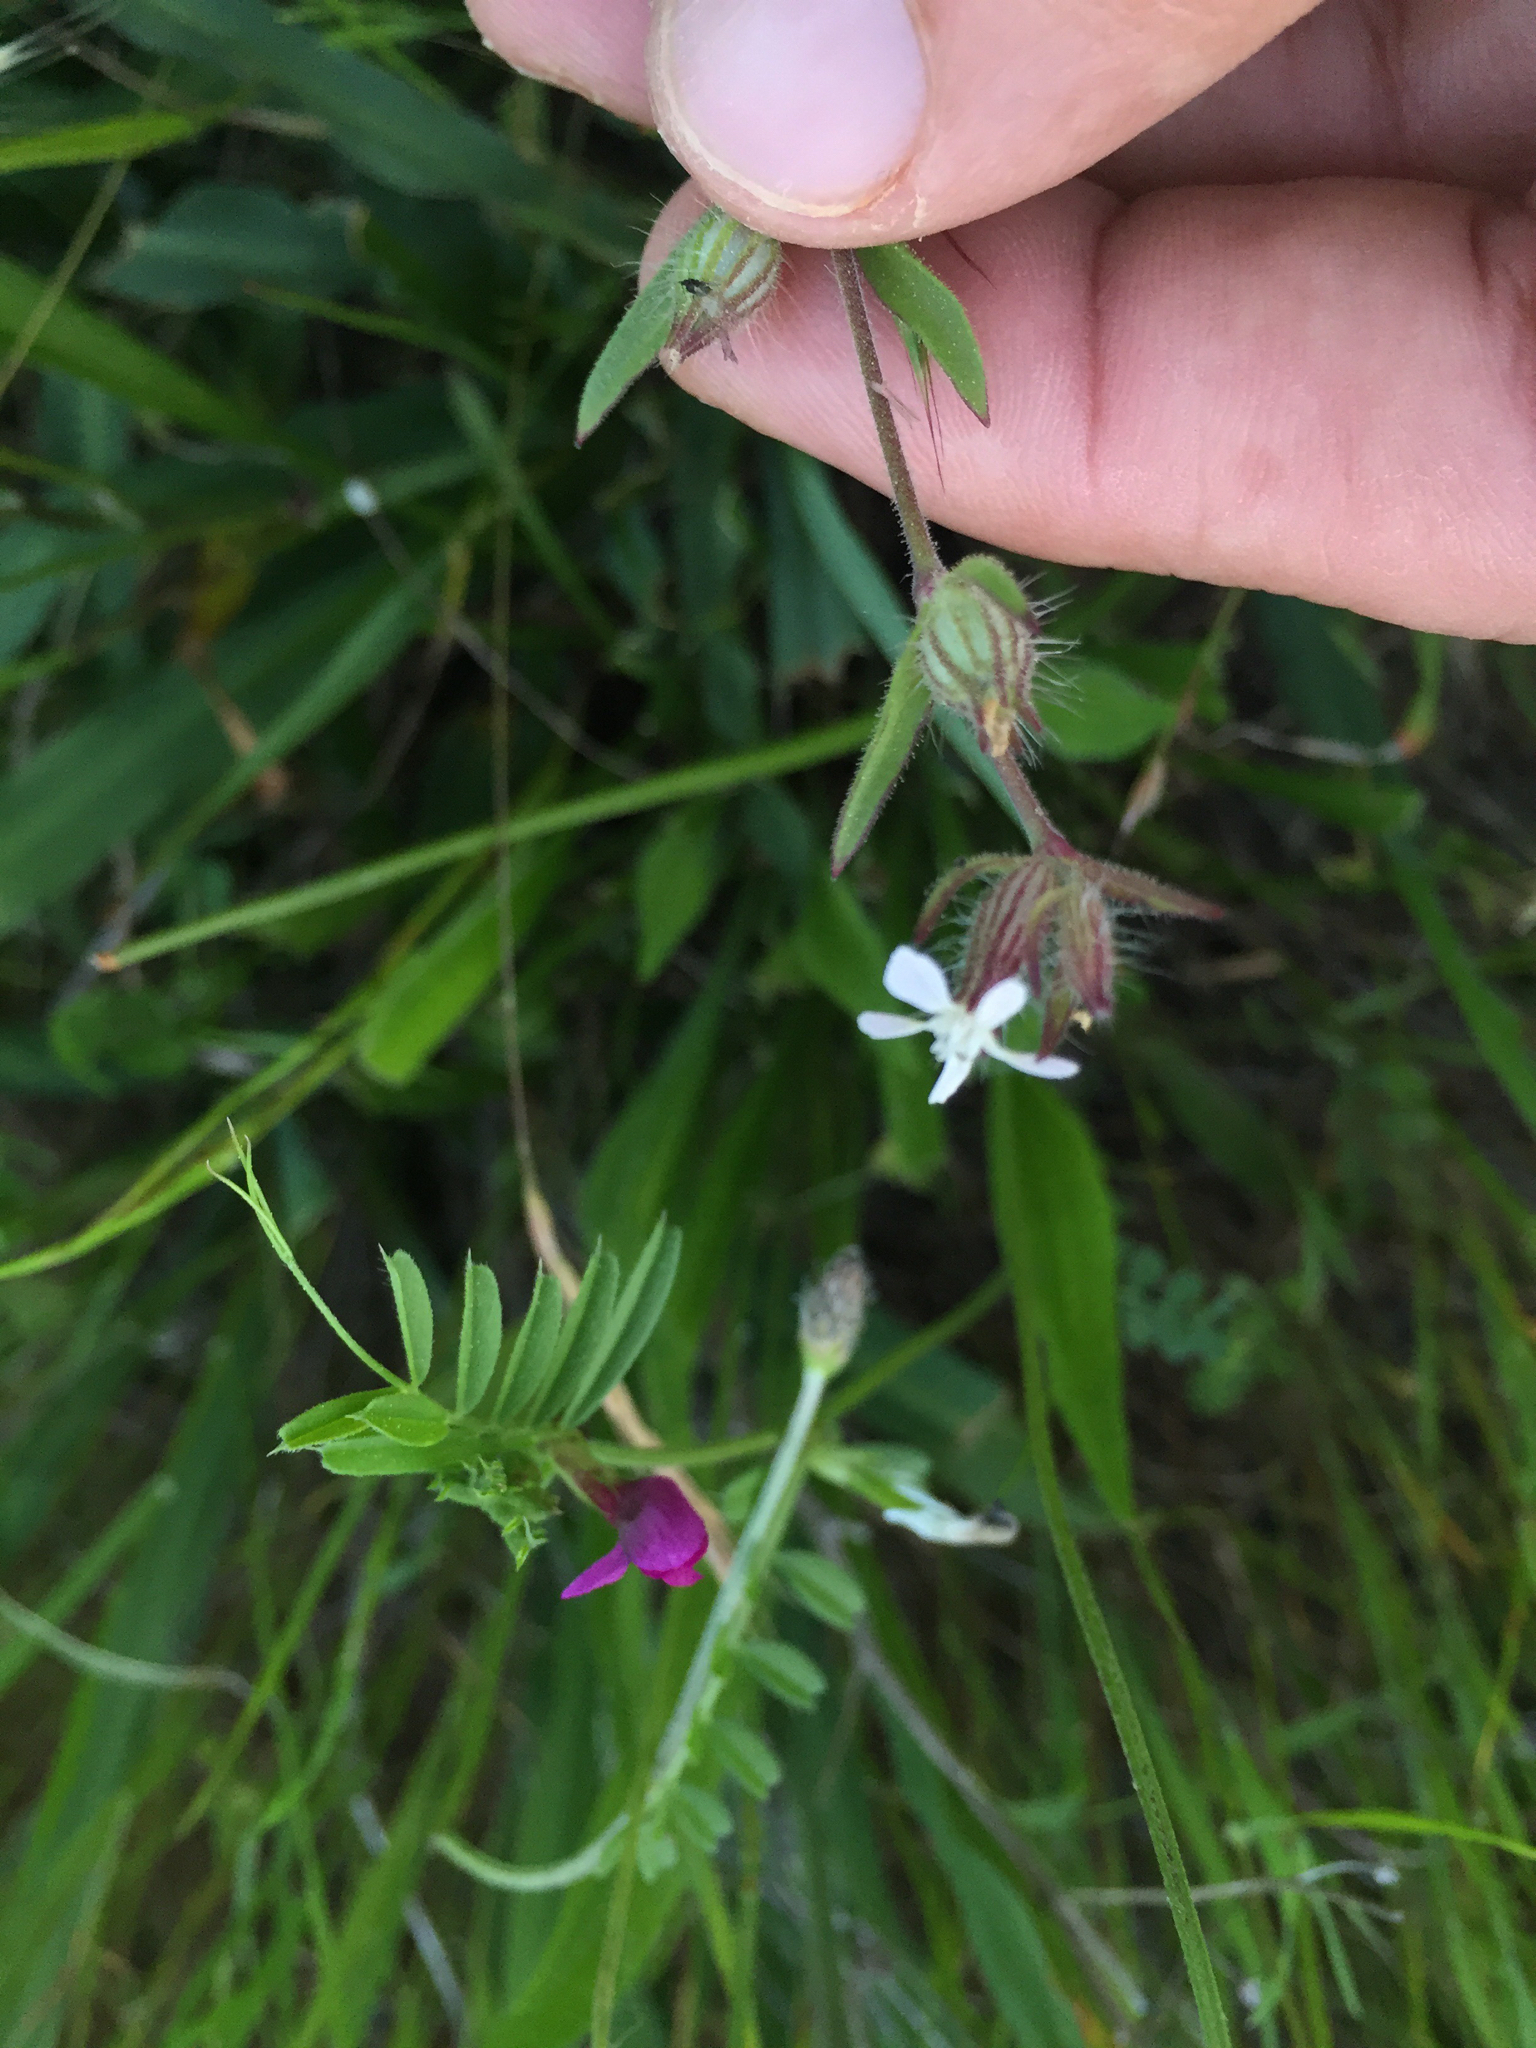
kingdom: Plantae
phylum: Tracheophyta
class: Magnoliopsida
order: Caryophyllales
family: Caryophyllaceae
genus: Silene
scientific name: Silene gallica
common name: Small-flowered catchfly
